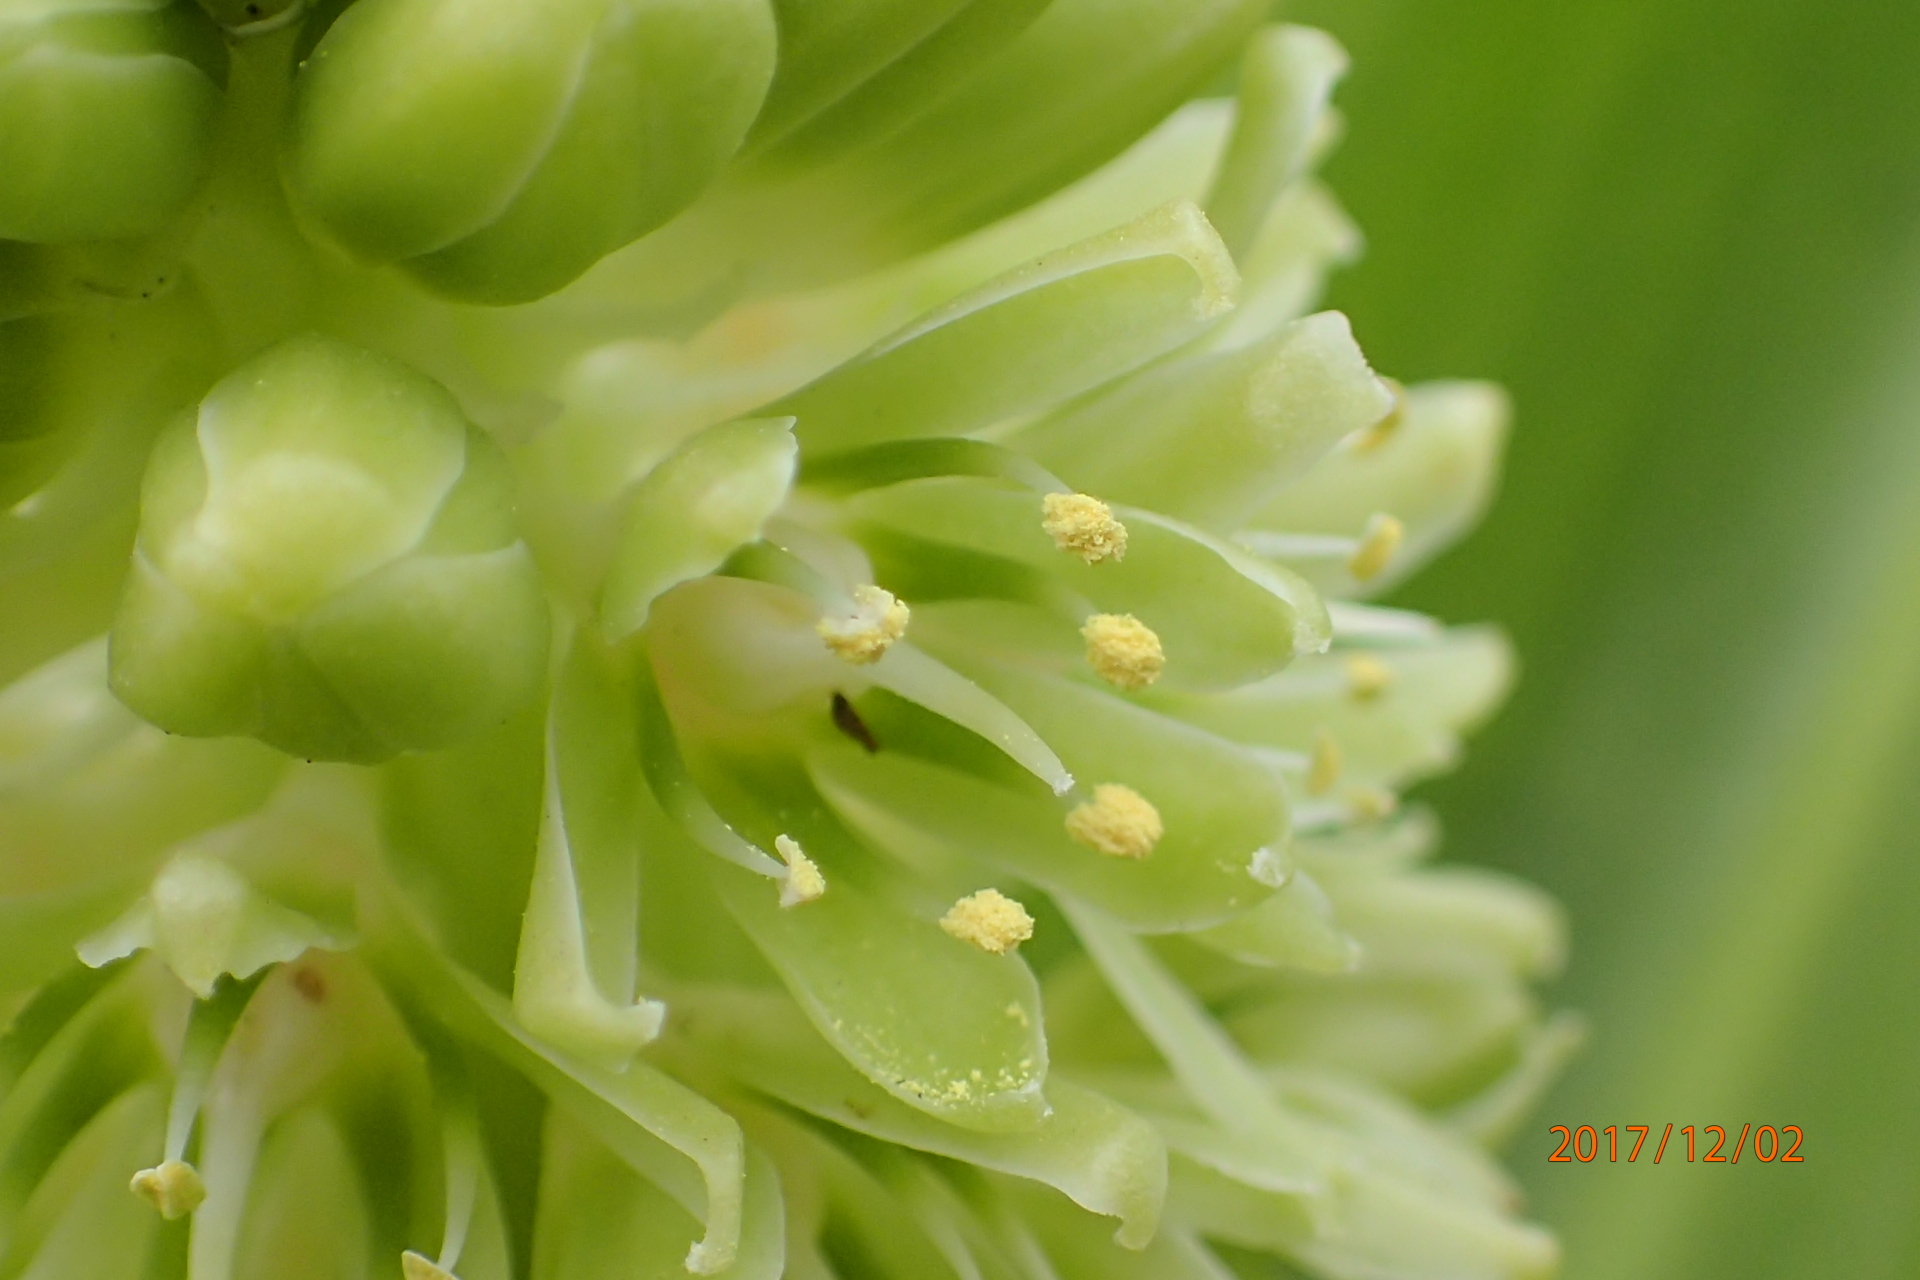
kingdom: Plantae
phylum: Tracheophyta
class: Liliopsida
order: Asparagales
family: Asparagaceae
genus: Eucomis
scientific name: Eucomis autumnalis
